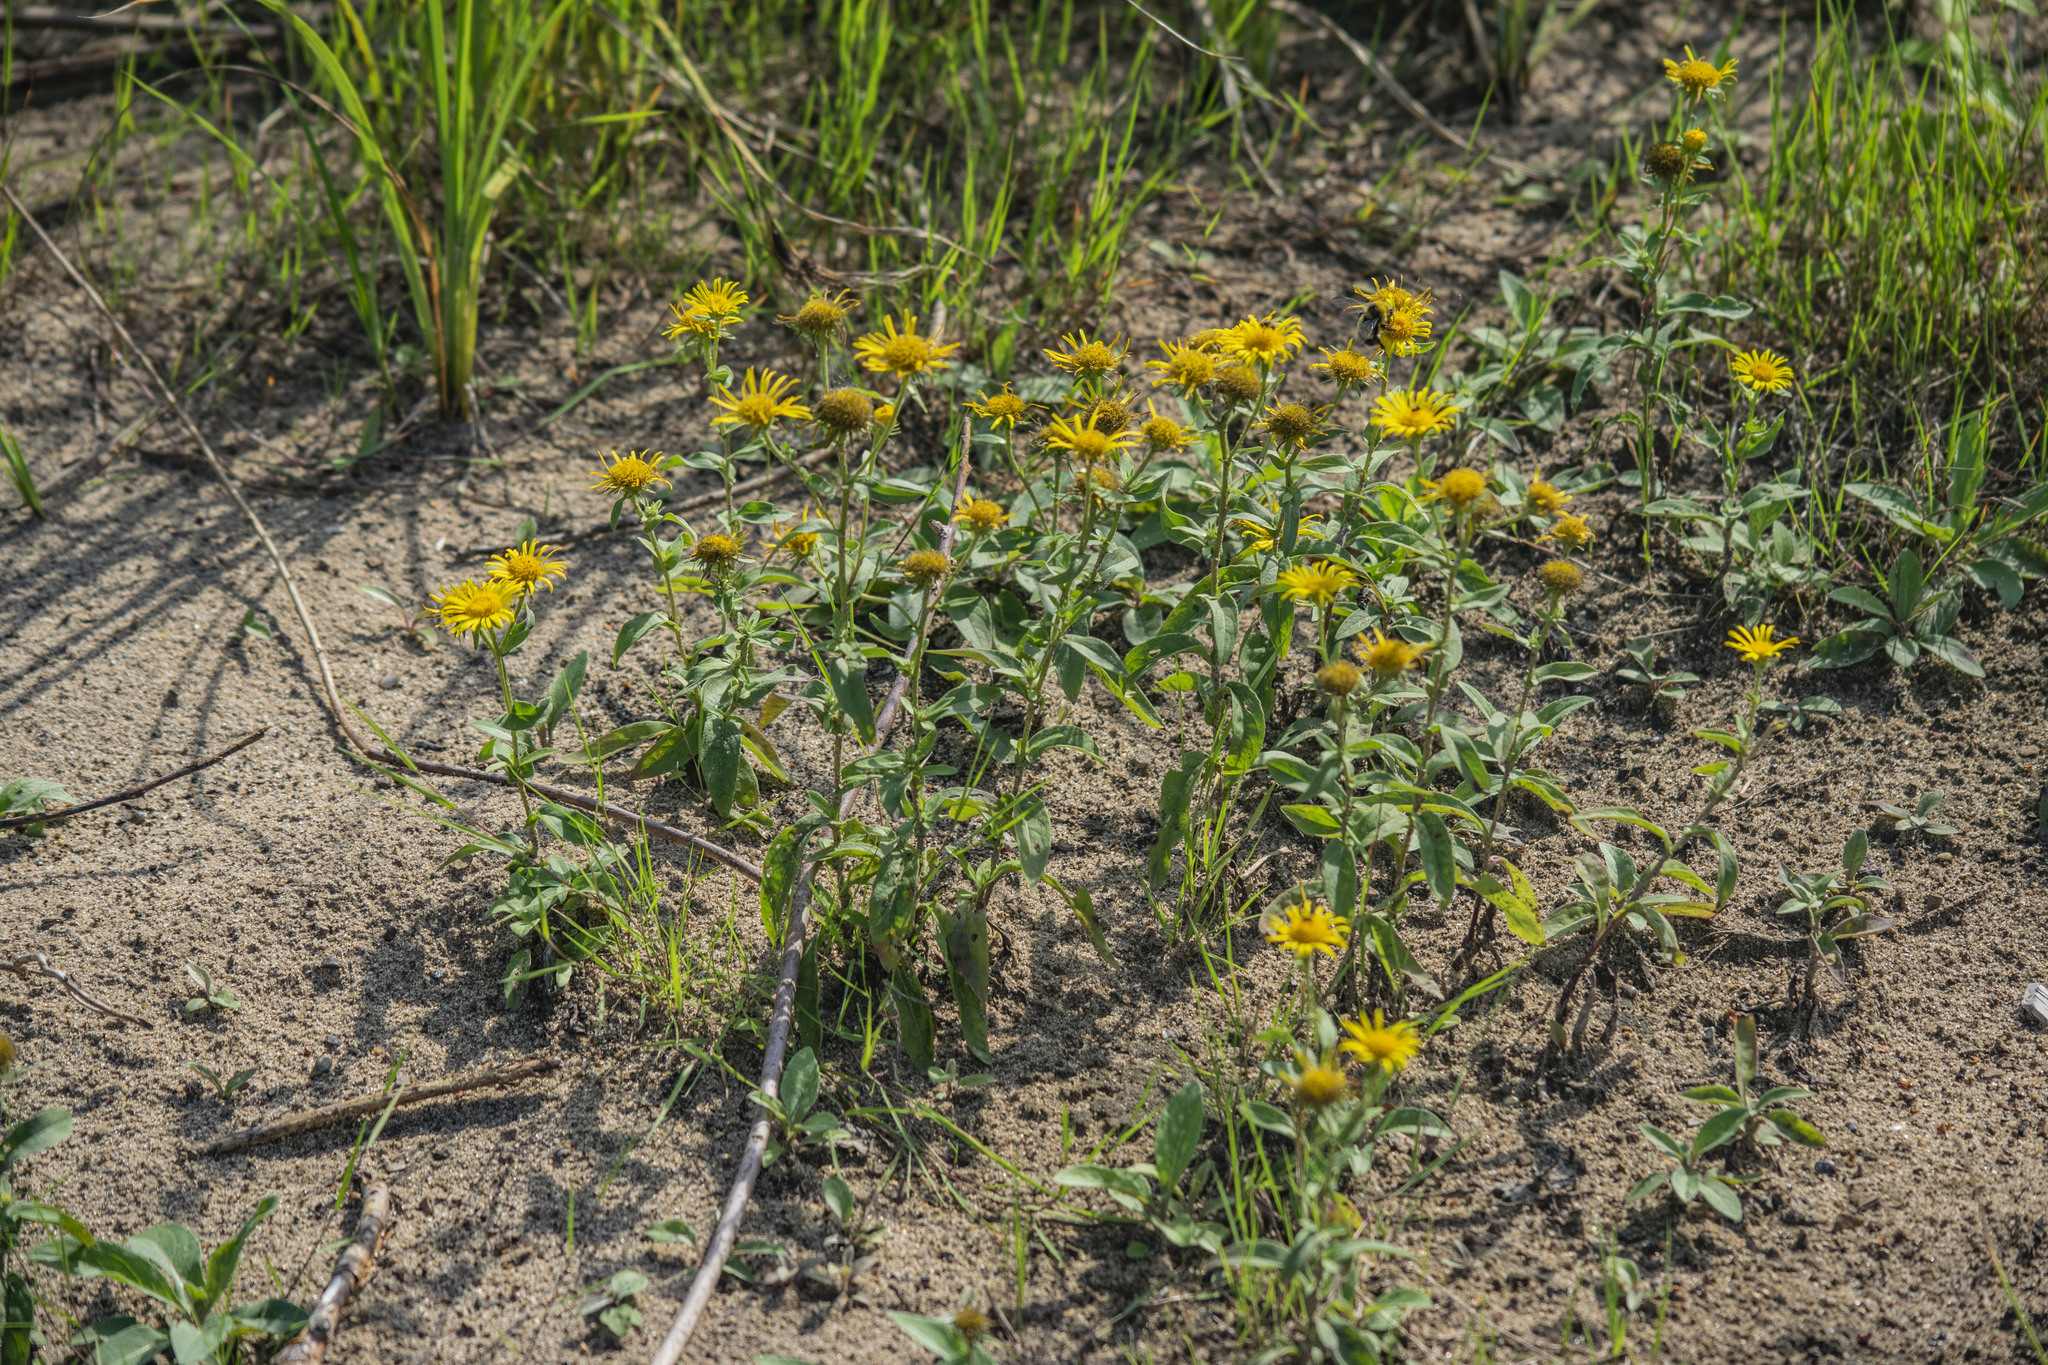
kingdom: Plantae
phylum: Tracheophyta
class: Magnoliopsida
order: Asterales
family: Asteraceae
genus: Pentanema
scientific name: Pentanema britannicum
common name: British elecampane
